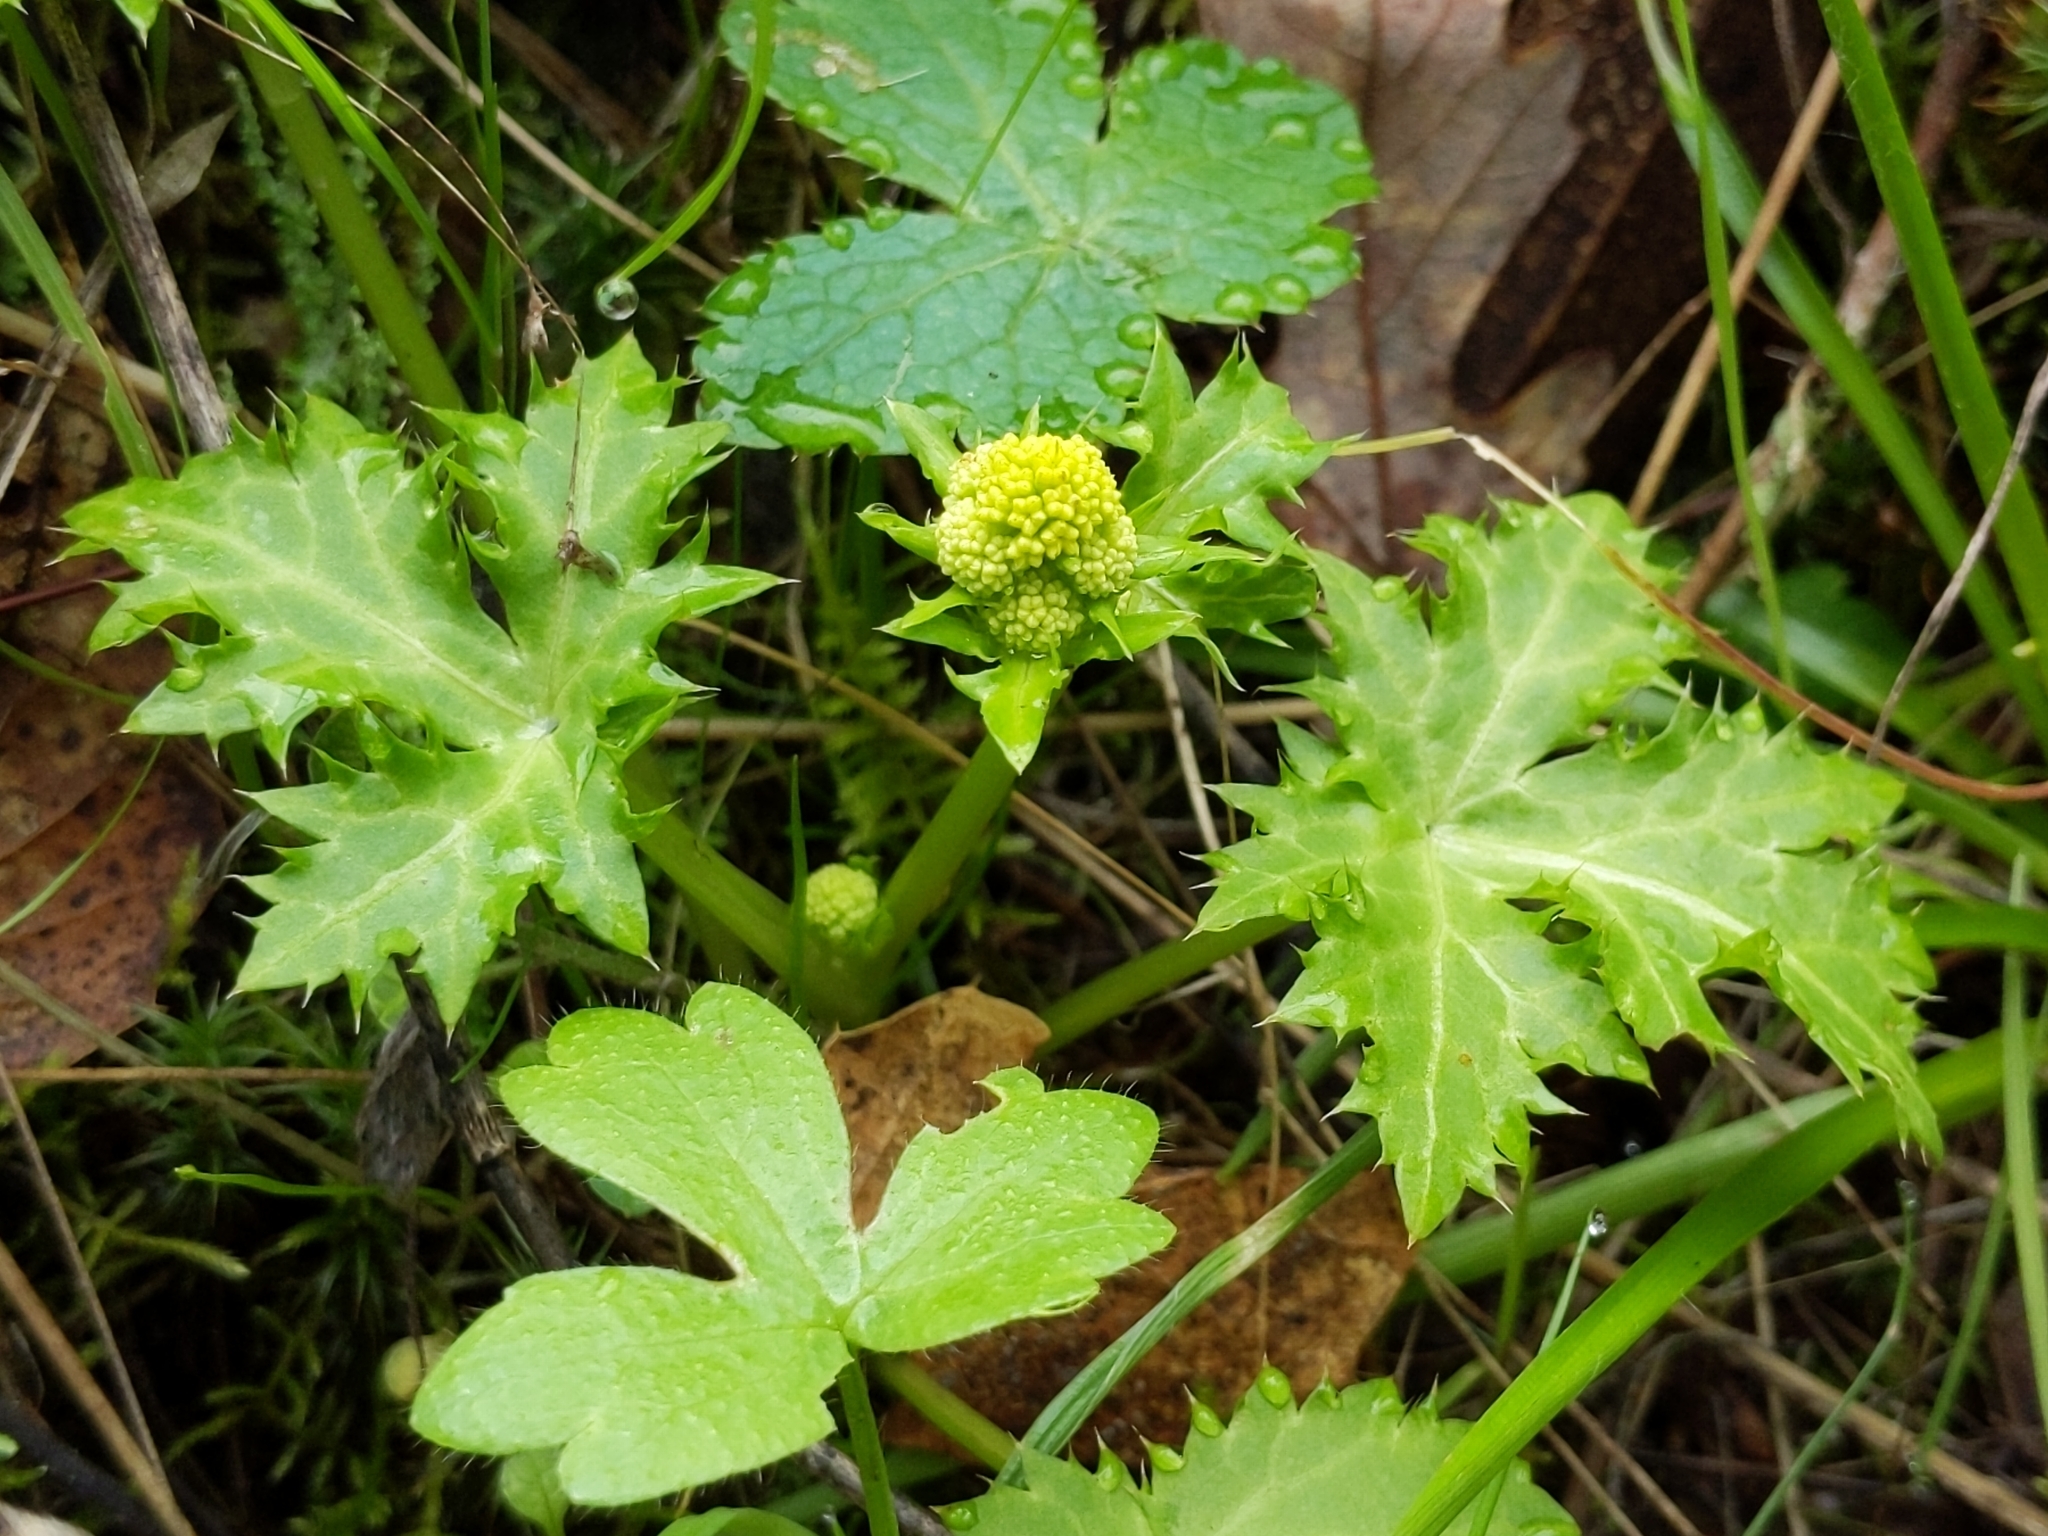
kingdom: Plantae
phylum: Tracheophyta
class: Magnoliopsida
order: Apiales
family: Apiaceae
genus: Sanicula
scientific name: Sanicula laciniata
